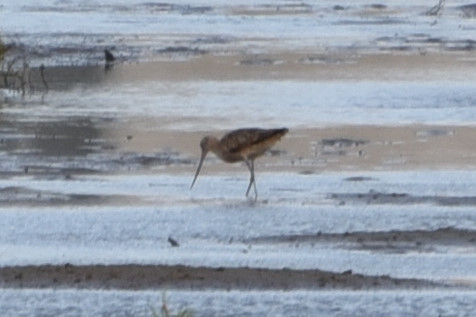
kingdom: Animalia
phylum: Chordata
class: Aves
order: Charadriiformes
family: Scolopacidae
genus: Limosa
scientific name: Limosa fedoa
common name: Marbled godwit
